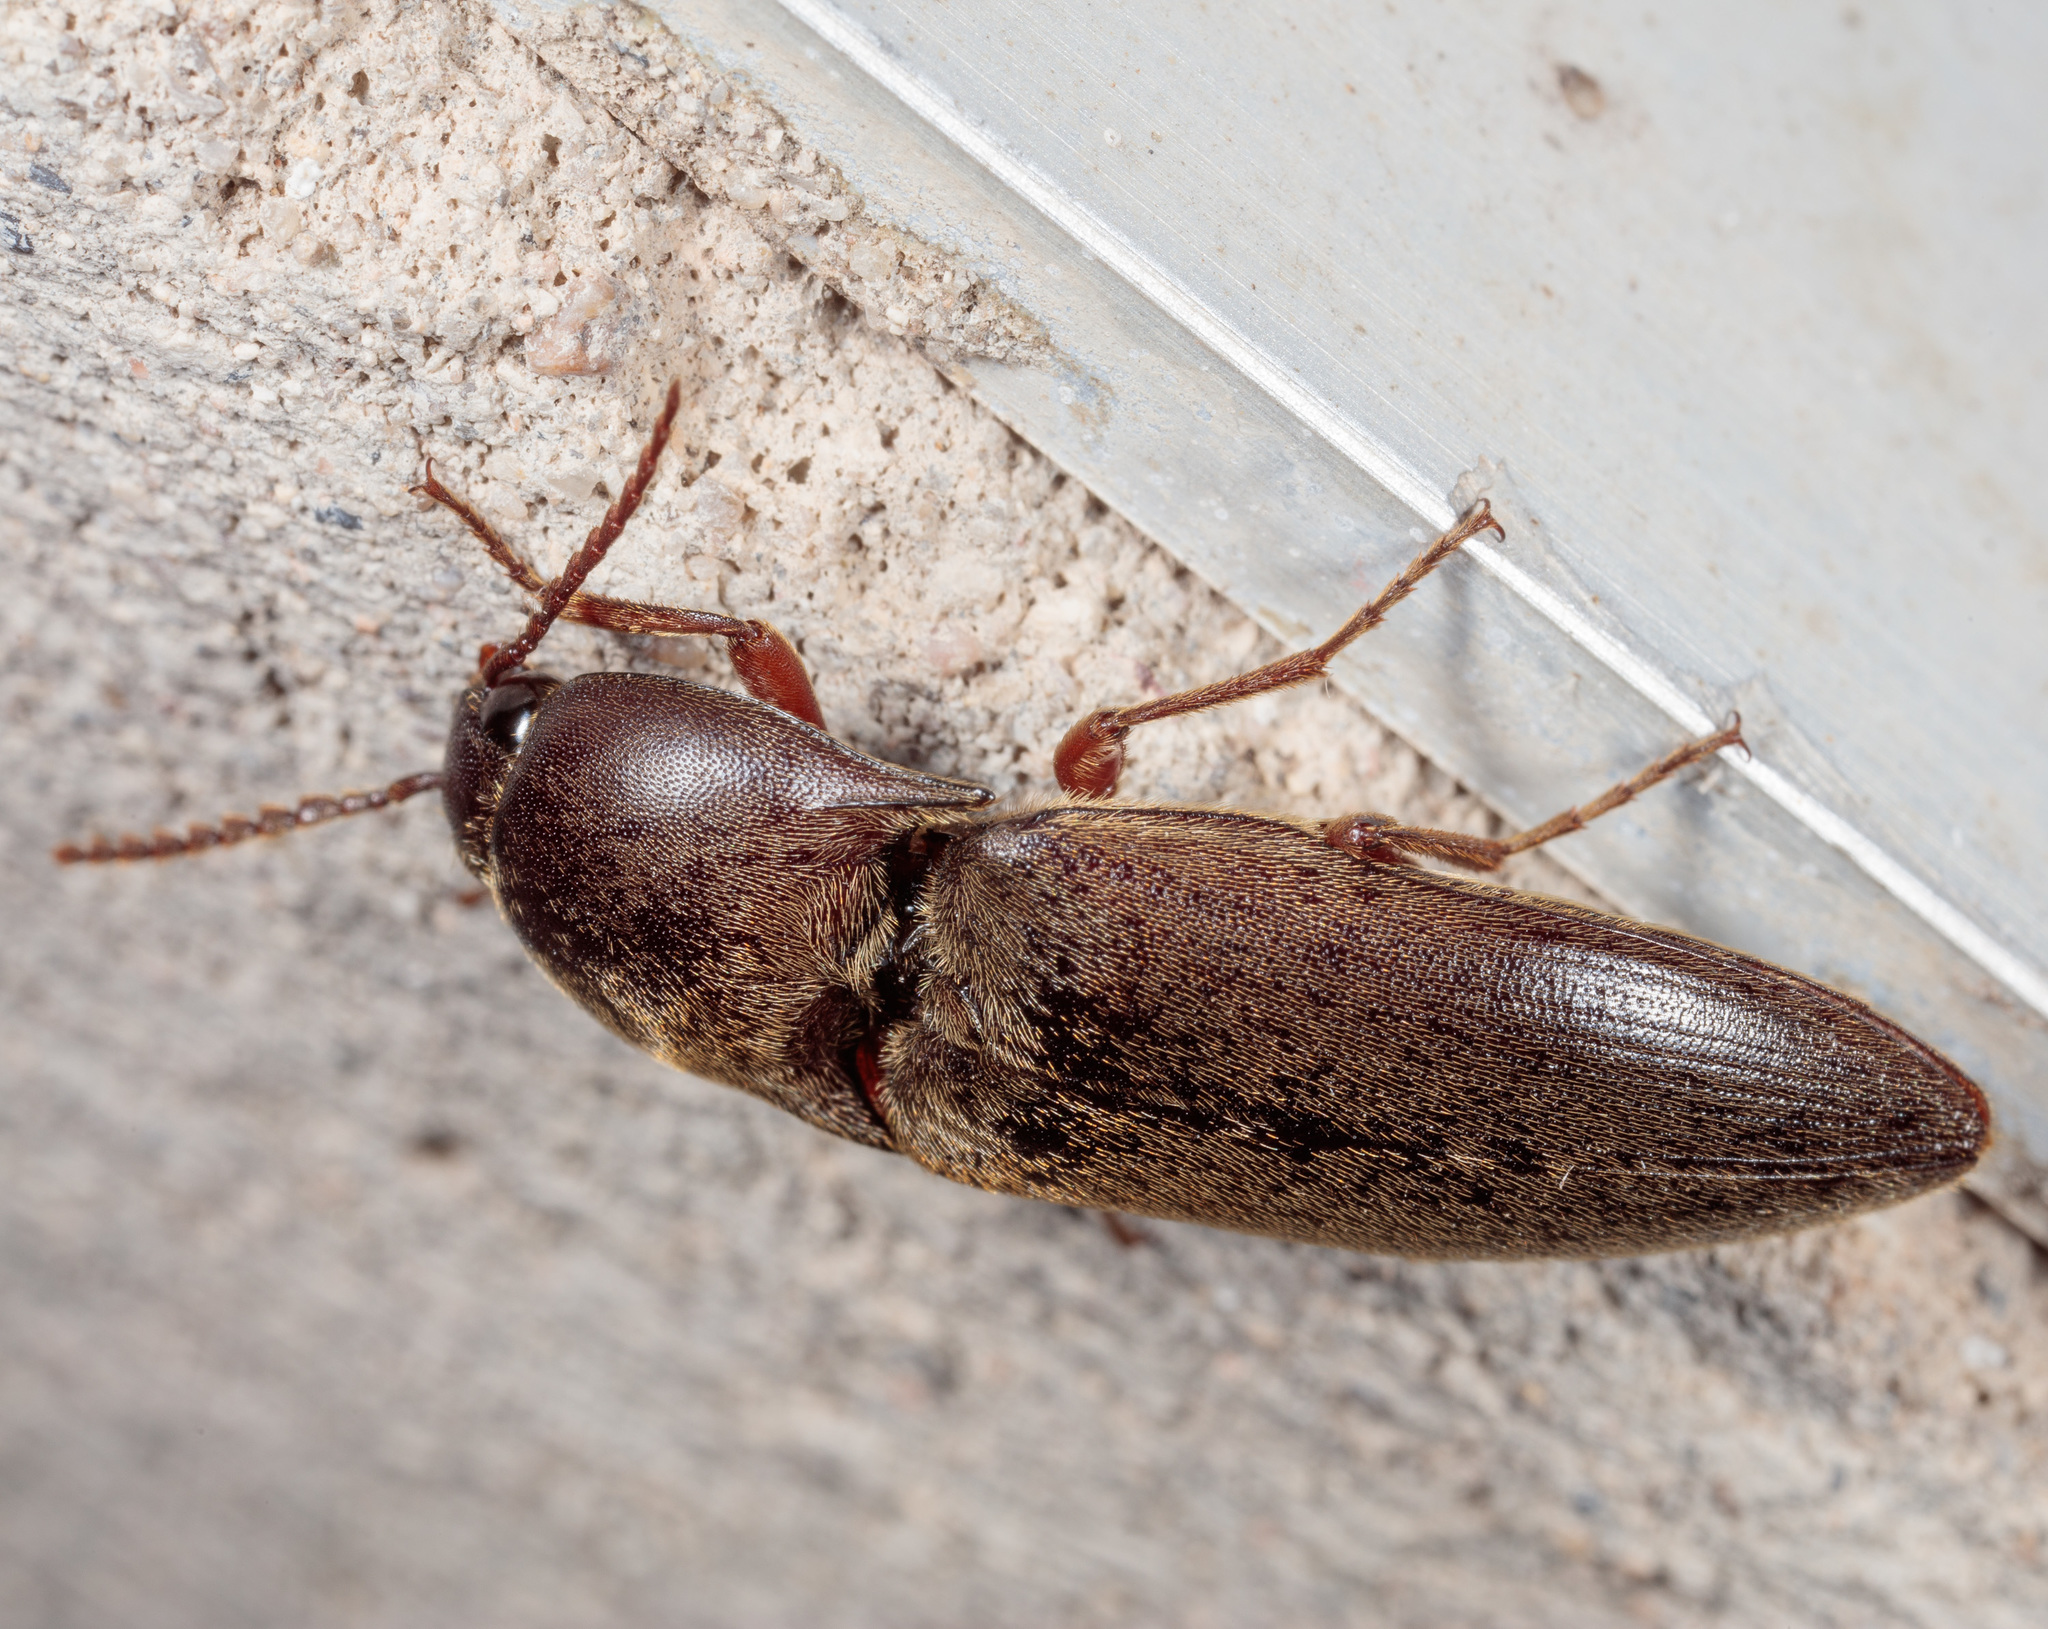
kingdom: Animalia
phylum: Arthropoda
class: Insecta
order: Coleoptera
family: Elateridae
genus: Diplostethus
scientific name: Diplostethus
